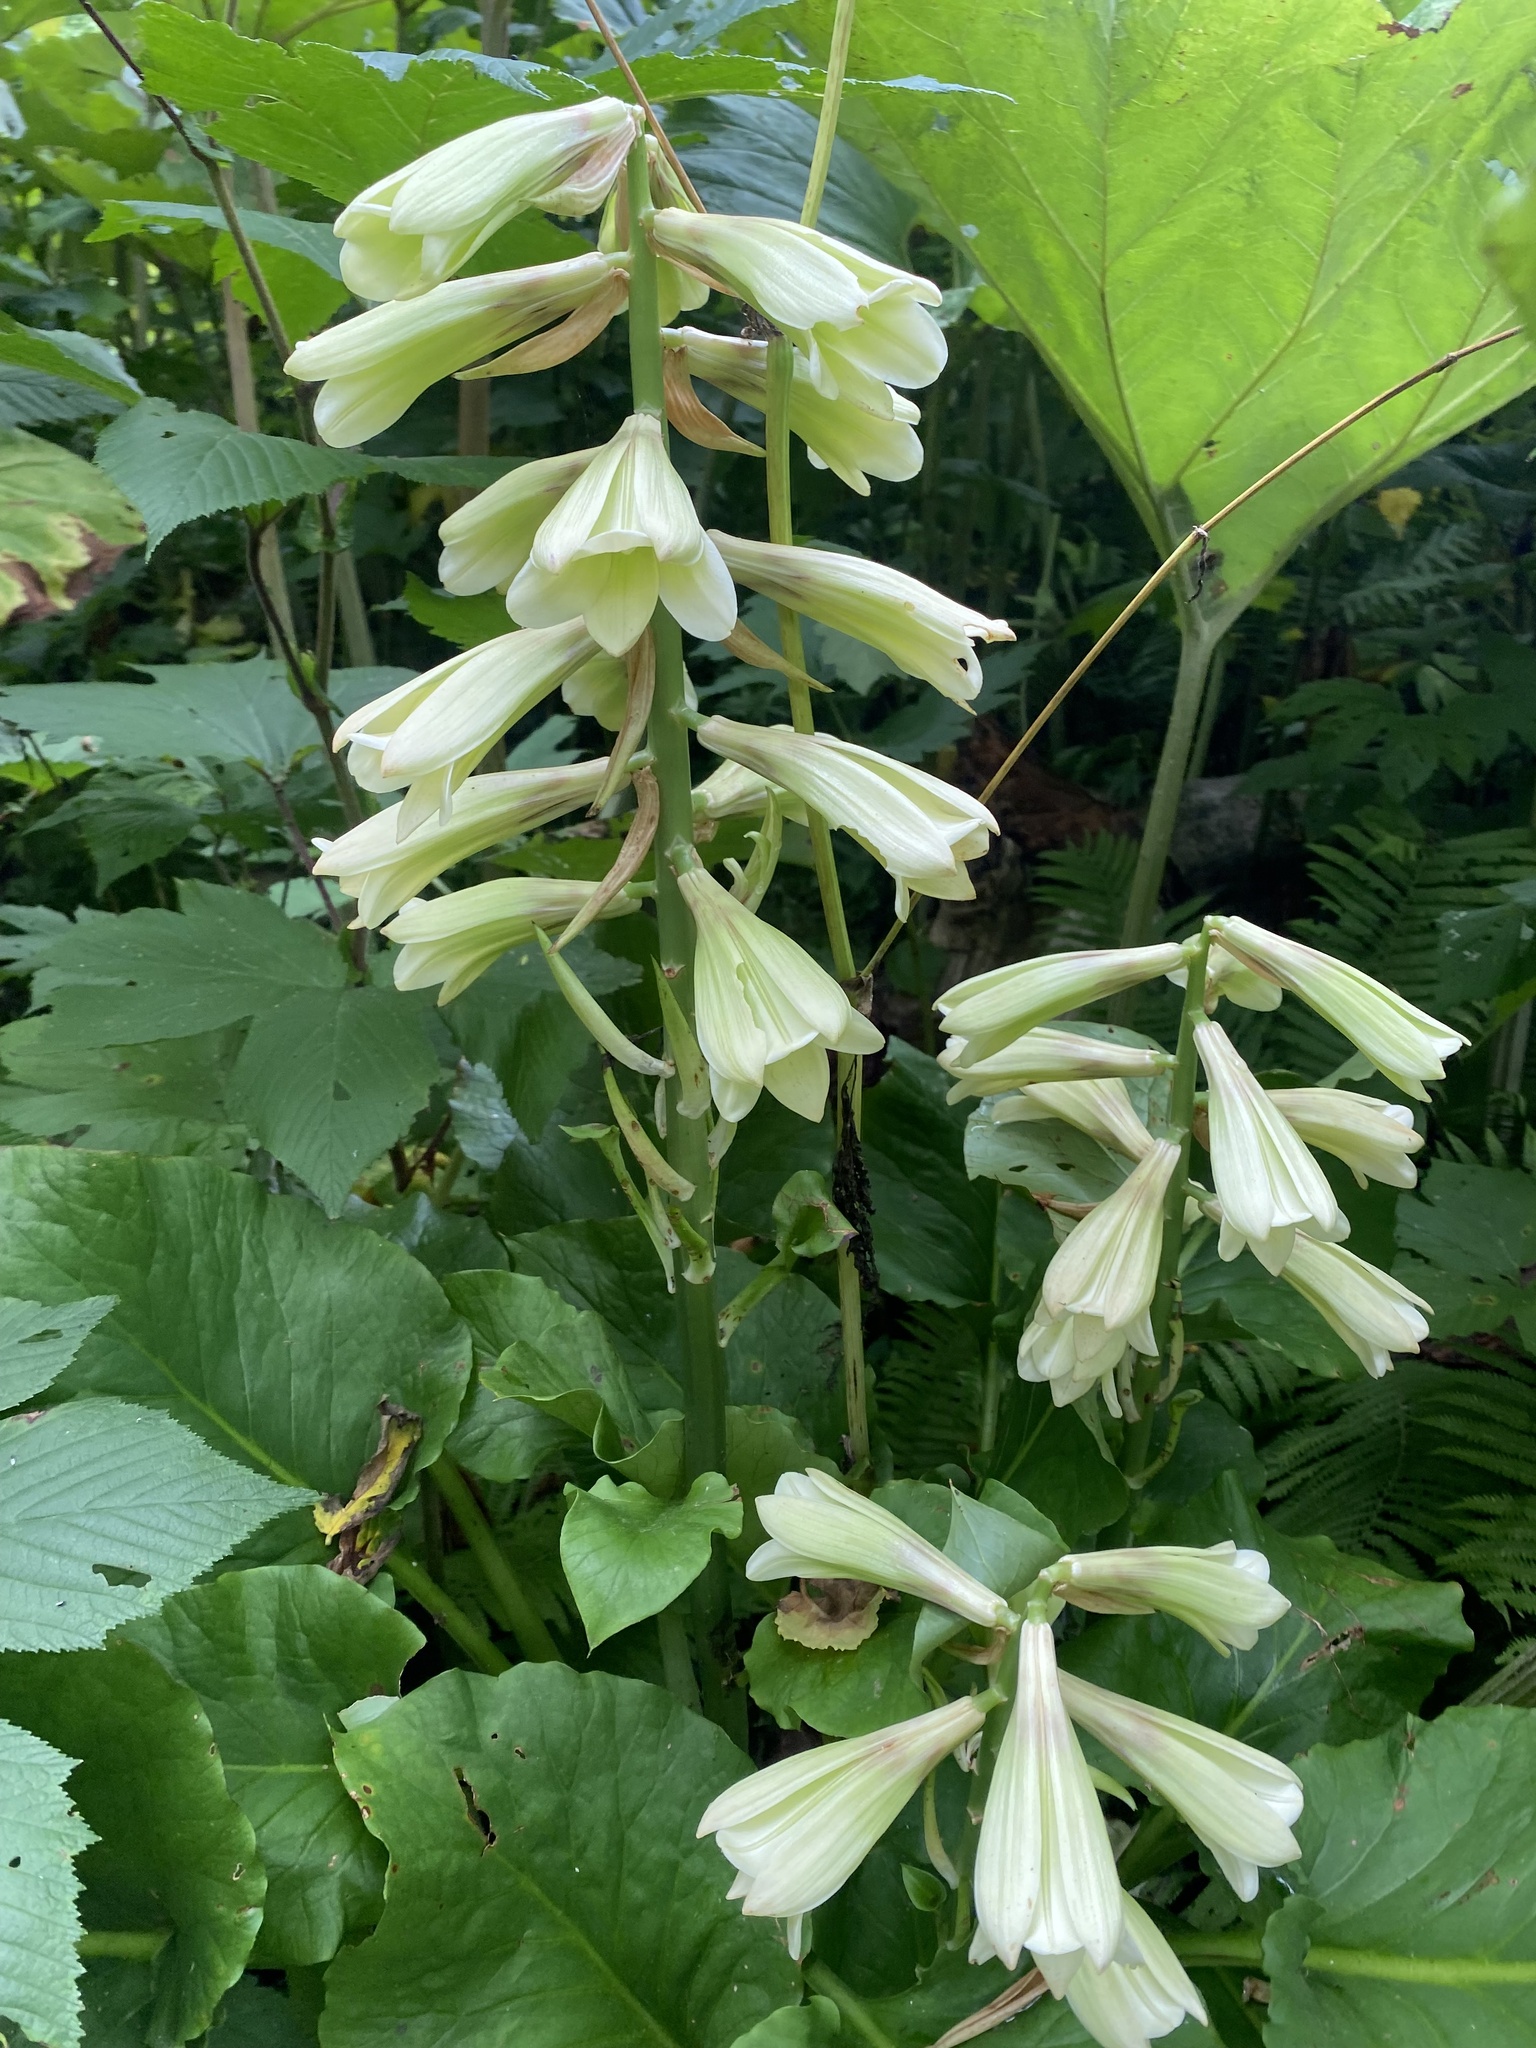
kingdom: Plantae
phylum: Tracheophyta
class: Liliopsida
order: Liliales
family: Liliaceae
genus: Cardiocrinum
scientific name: Cardiocrinum cordatum
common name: Lily
